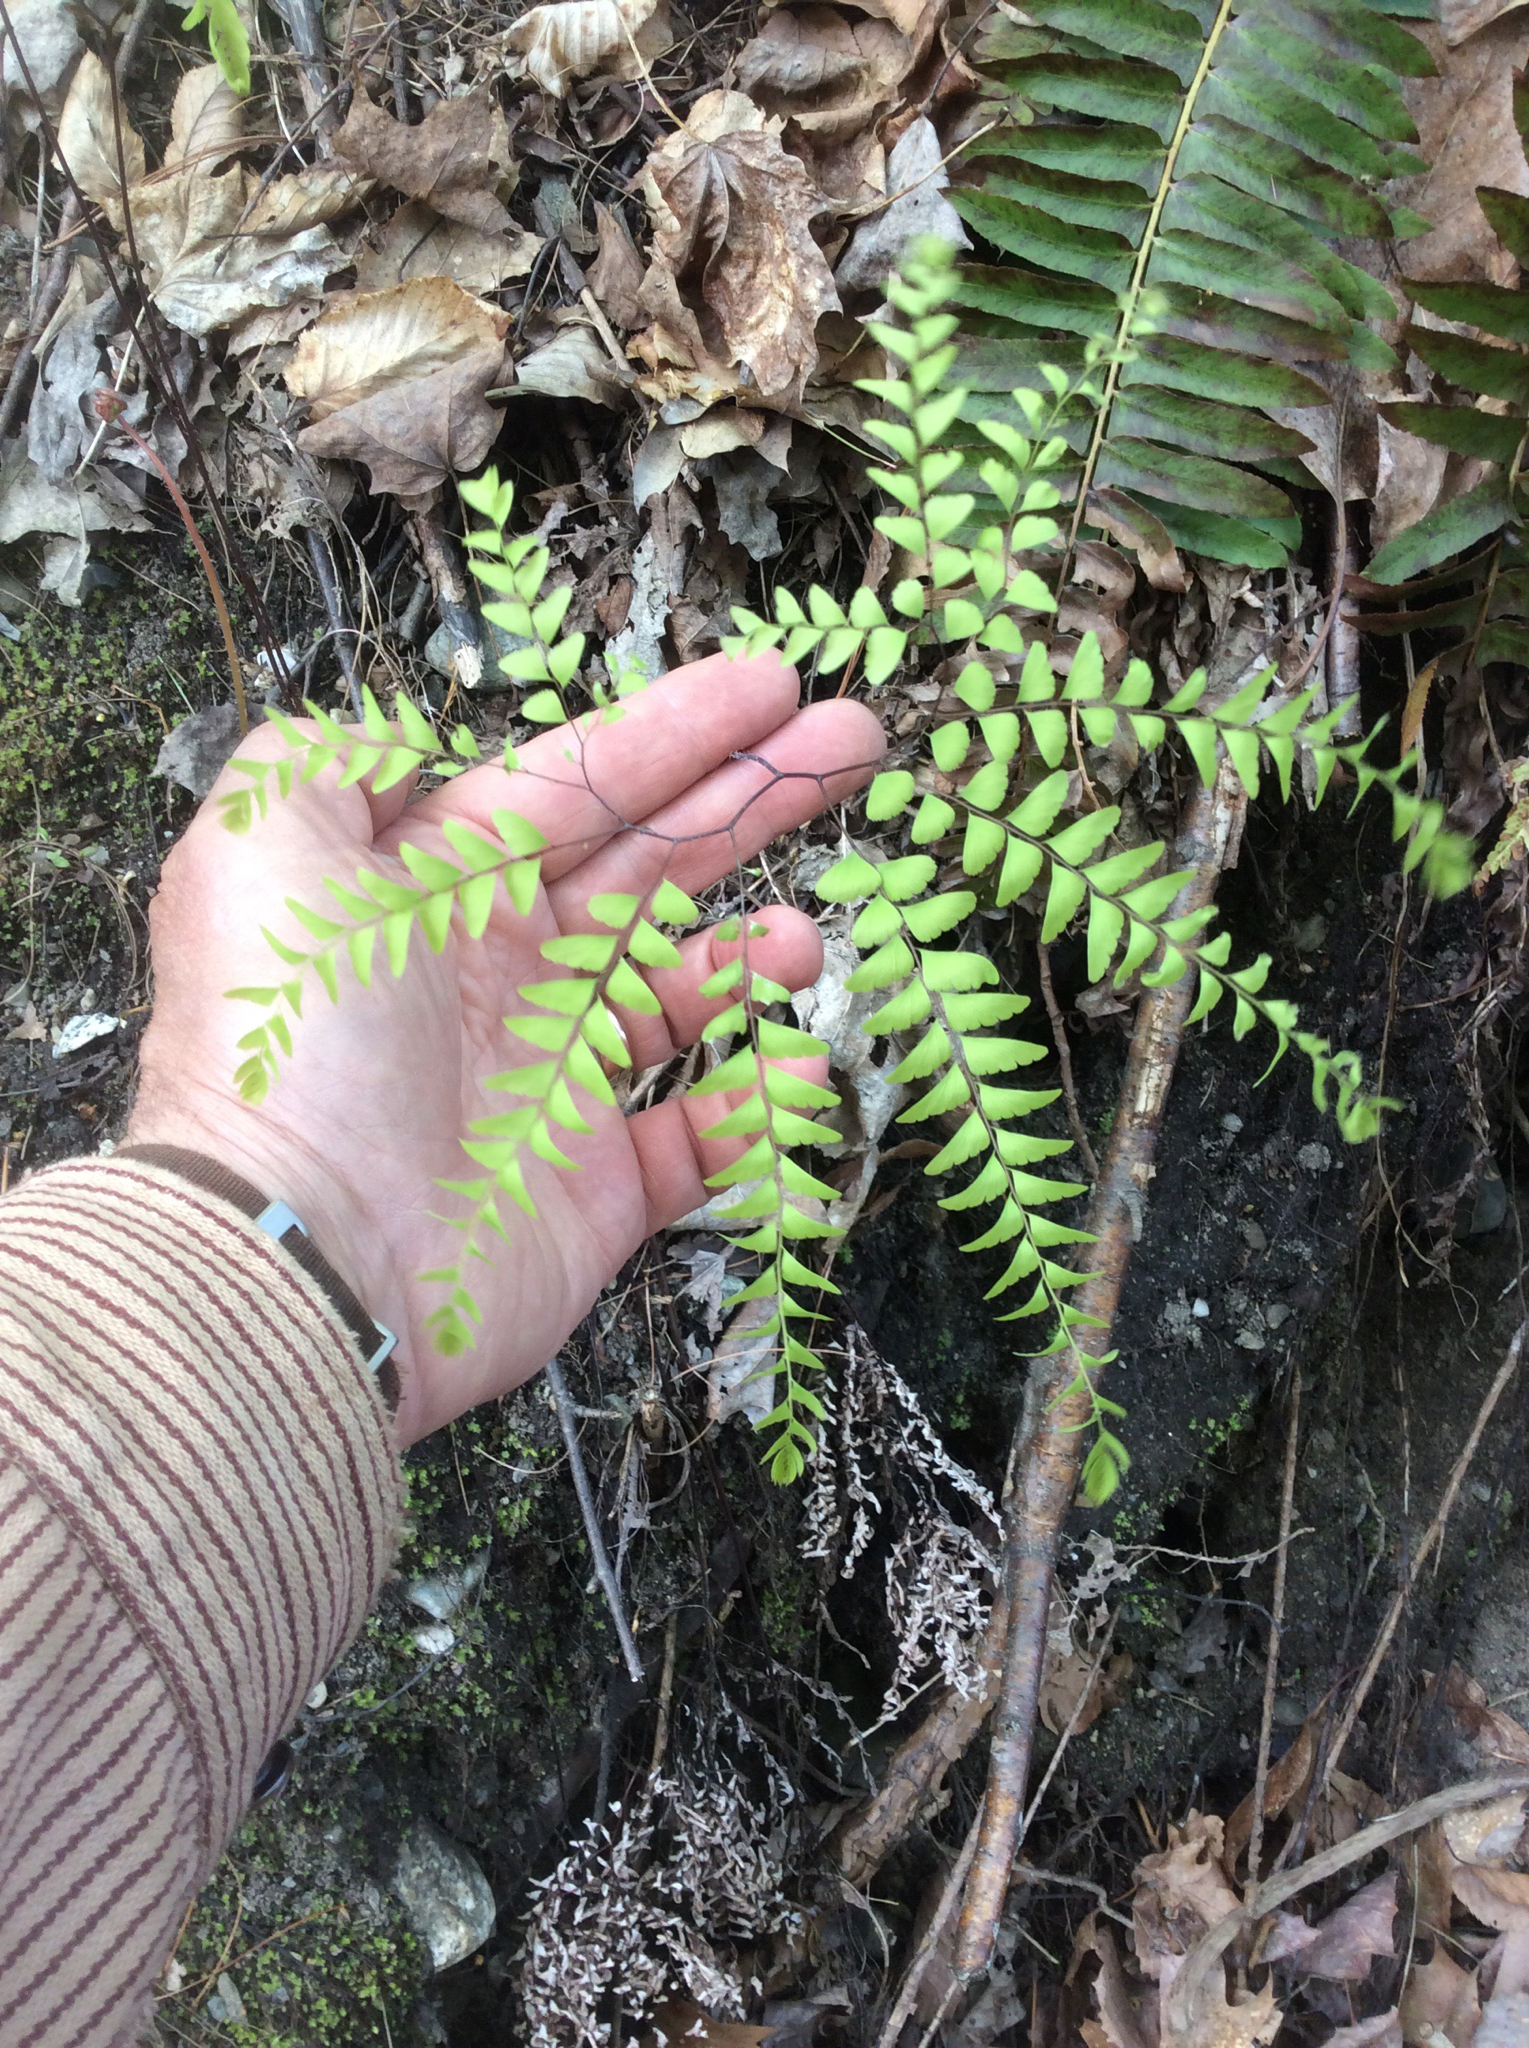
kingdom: Plantae
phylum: Tracheophyta
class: Polypodiopsida
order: Polypodiales
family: Pteridaceae
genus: Adiantum
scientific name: Adiantum pedatum
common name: Five-finger fern
